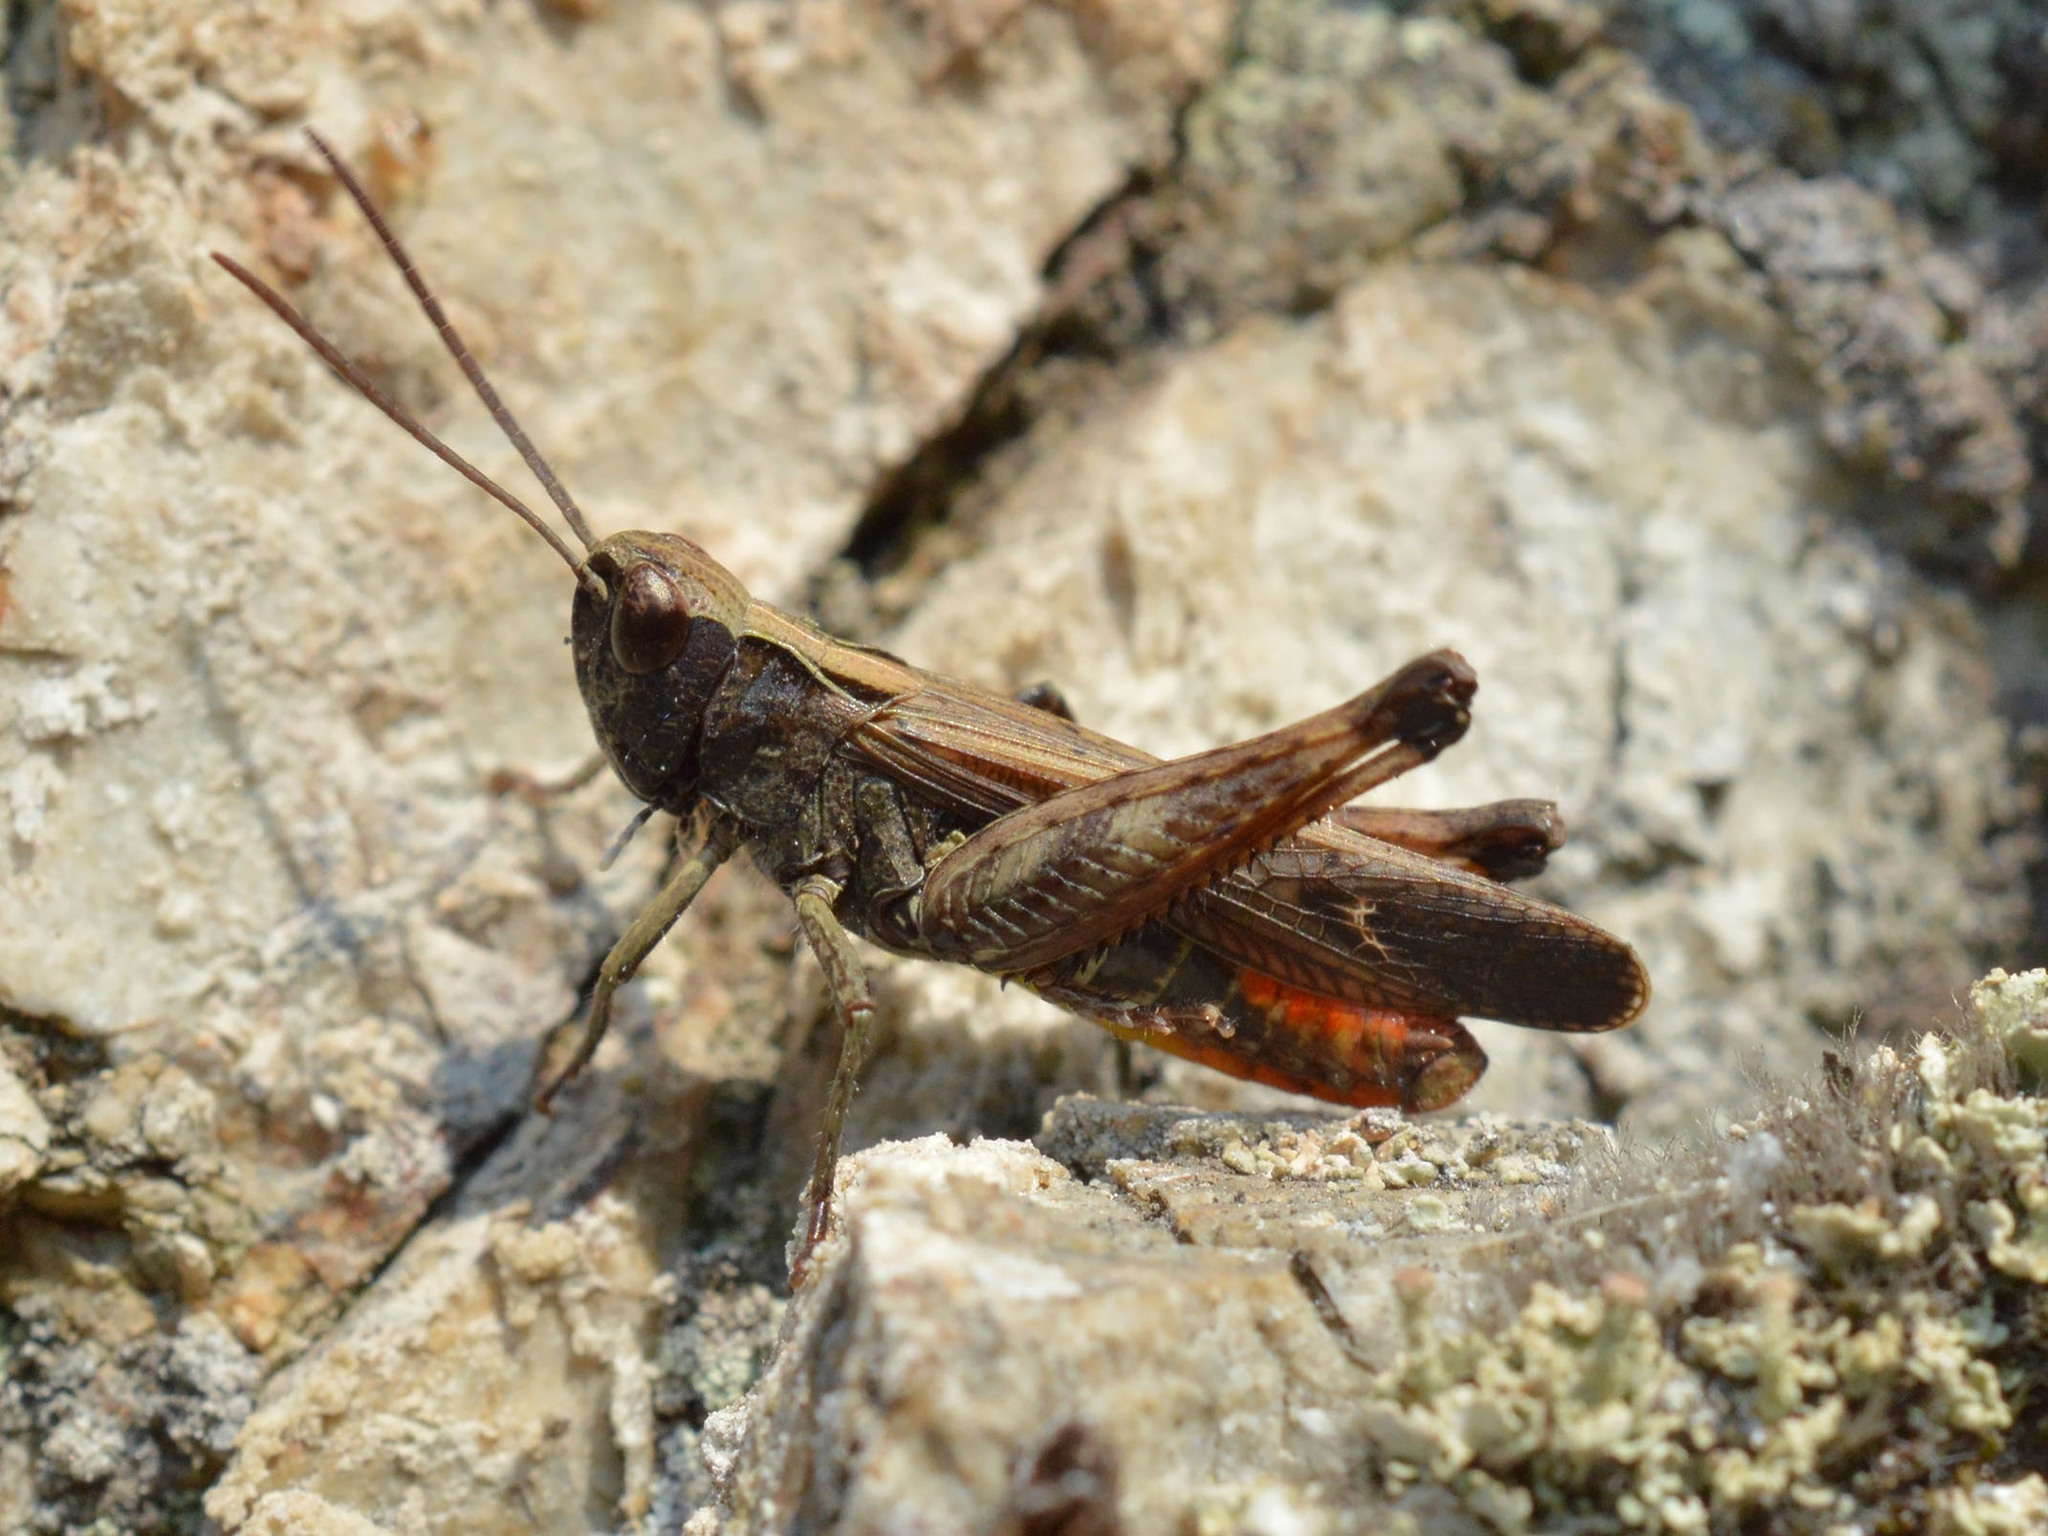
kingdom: Animalia
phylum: Arthropoda
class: Insecta
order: Orthoptera
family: Acrididae
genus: Omocestus
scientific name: Omocestus rufipes
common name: Woodland grasshopper
